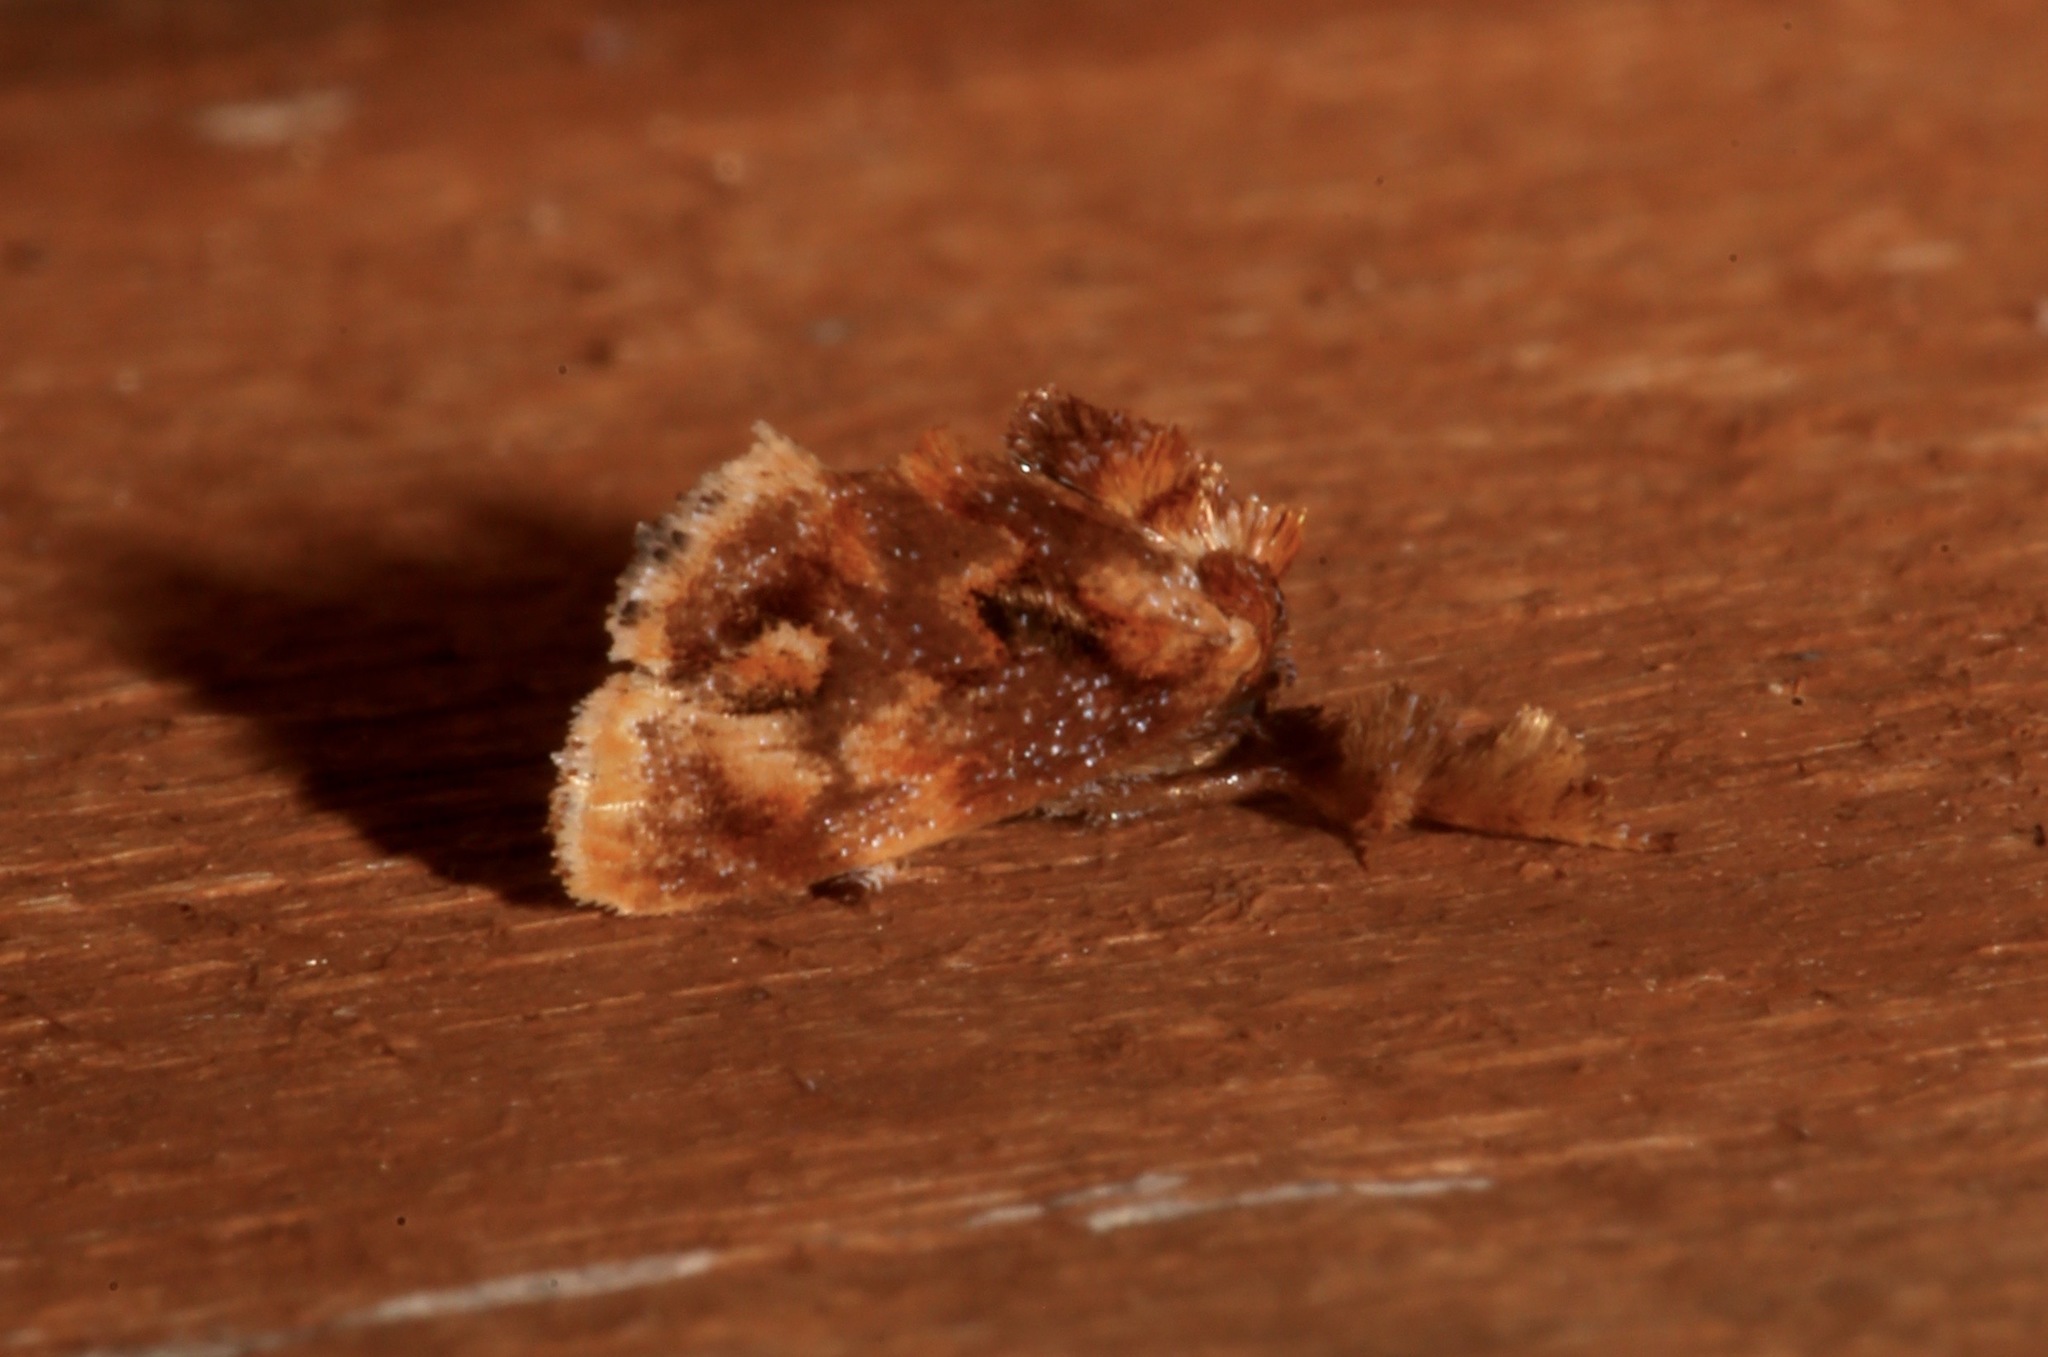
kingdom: Animalia
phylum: Arthropoda
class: Insecta
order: Lepidoptera
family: Limacodidae
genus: Isochaetes
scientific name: Isochaetes beutenmuelleri
